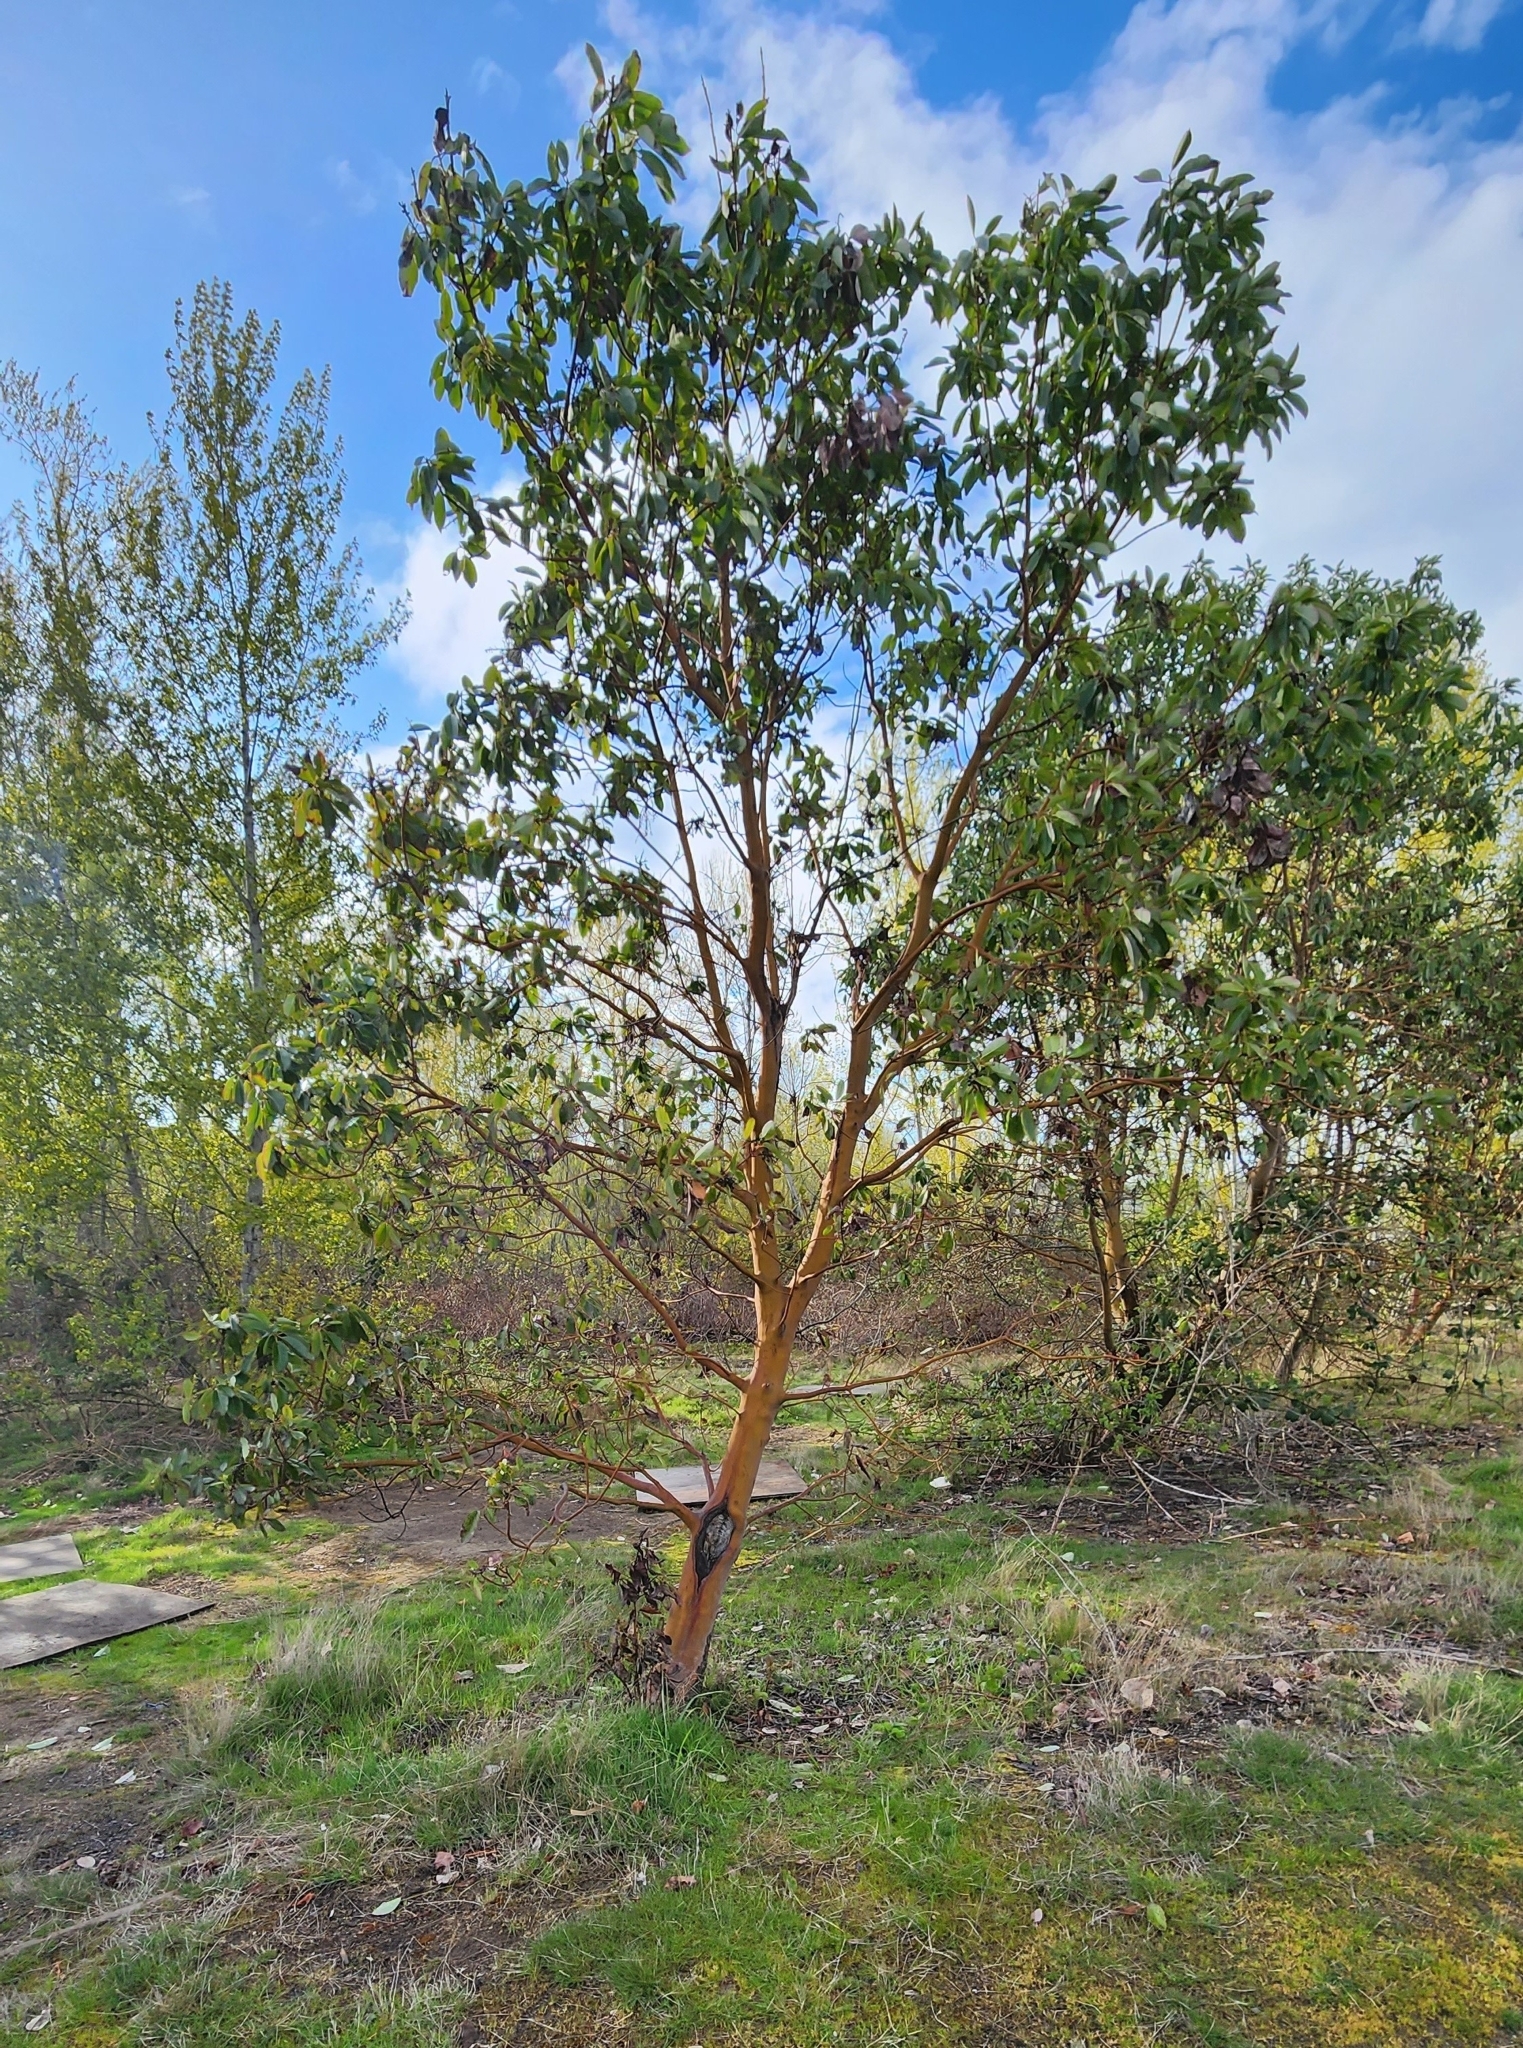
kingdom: Plantae
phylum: Tracheophyta
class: Magnoliopsida
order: Ericales
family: Ericaceae
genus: Arbutus
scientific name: Arbutus menziesii
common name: Pacific madrone
